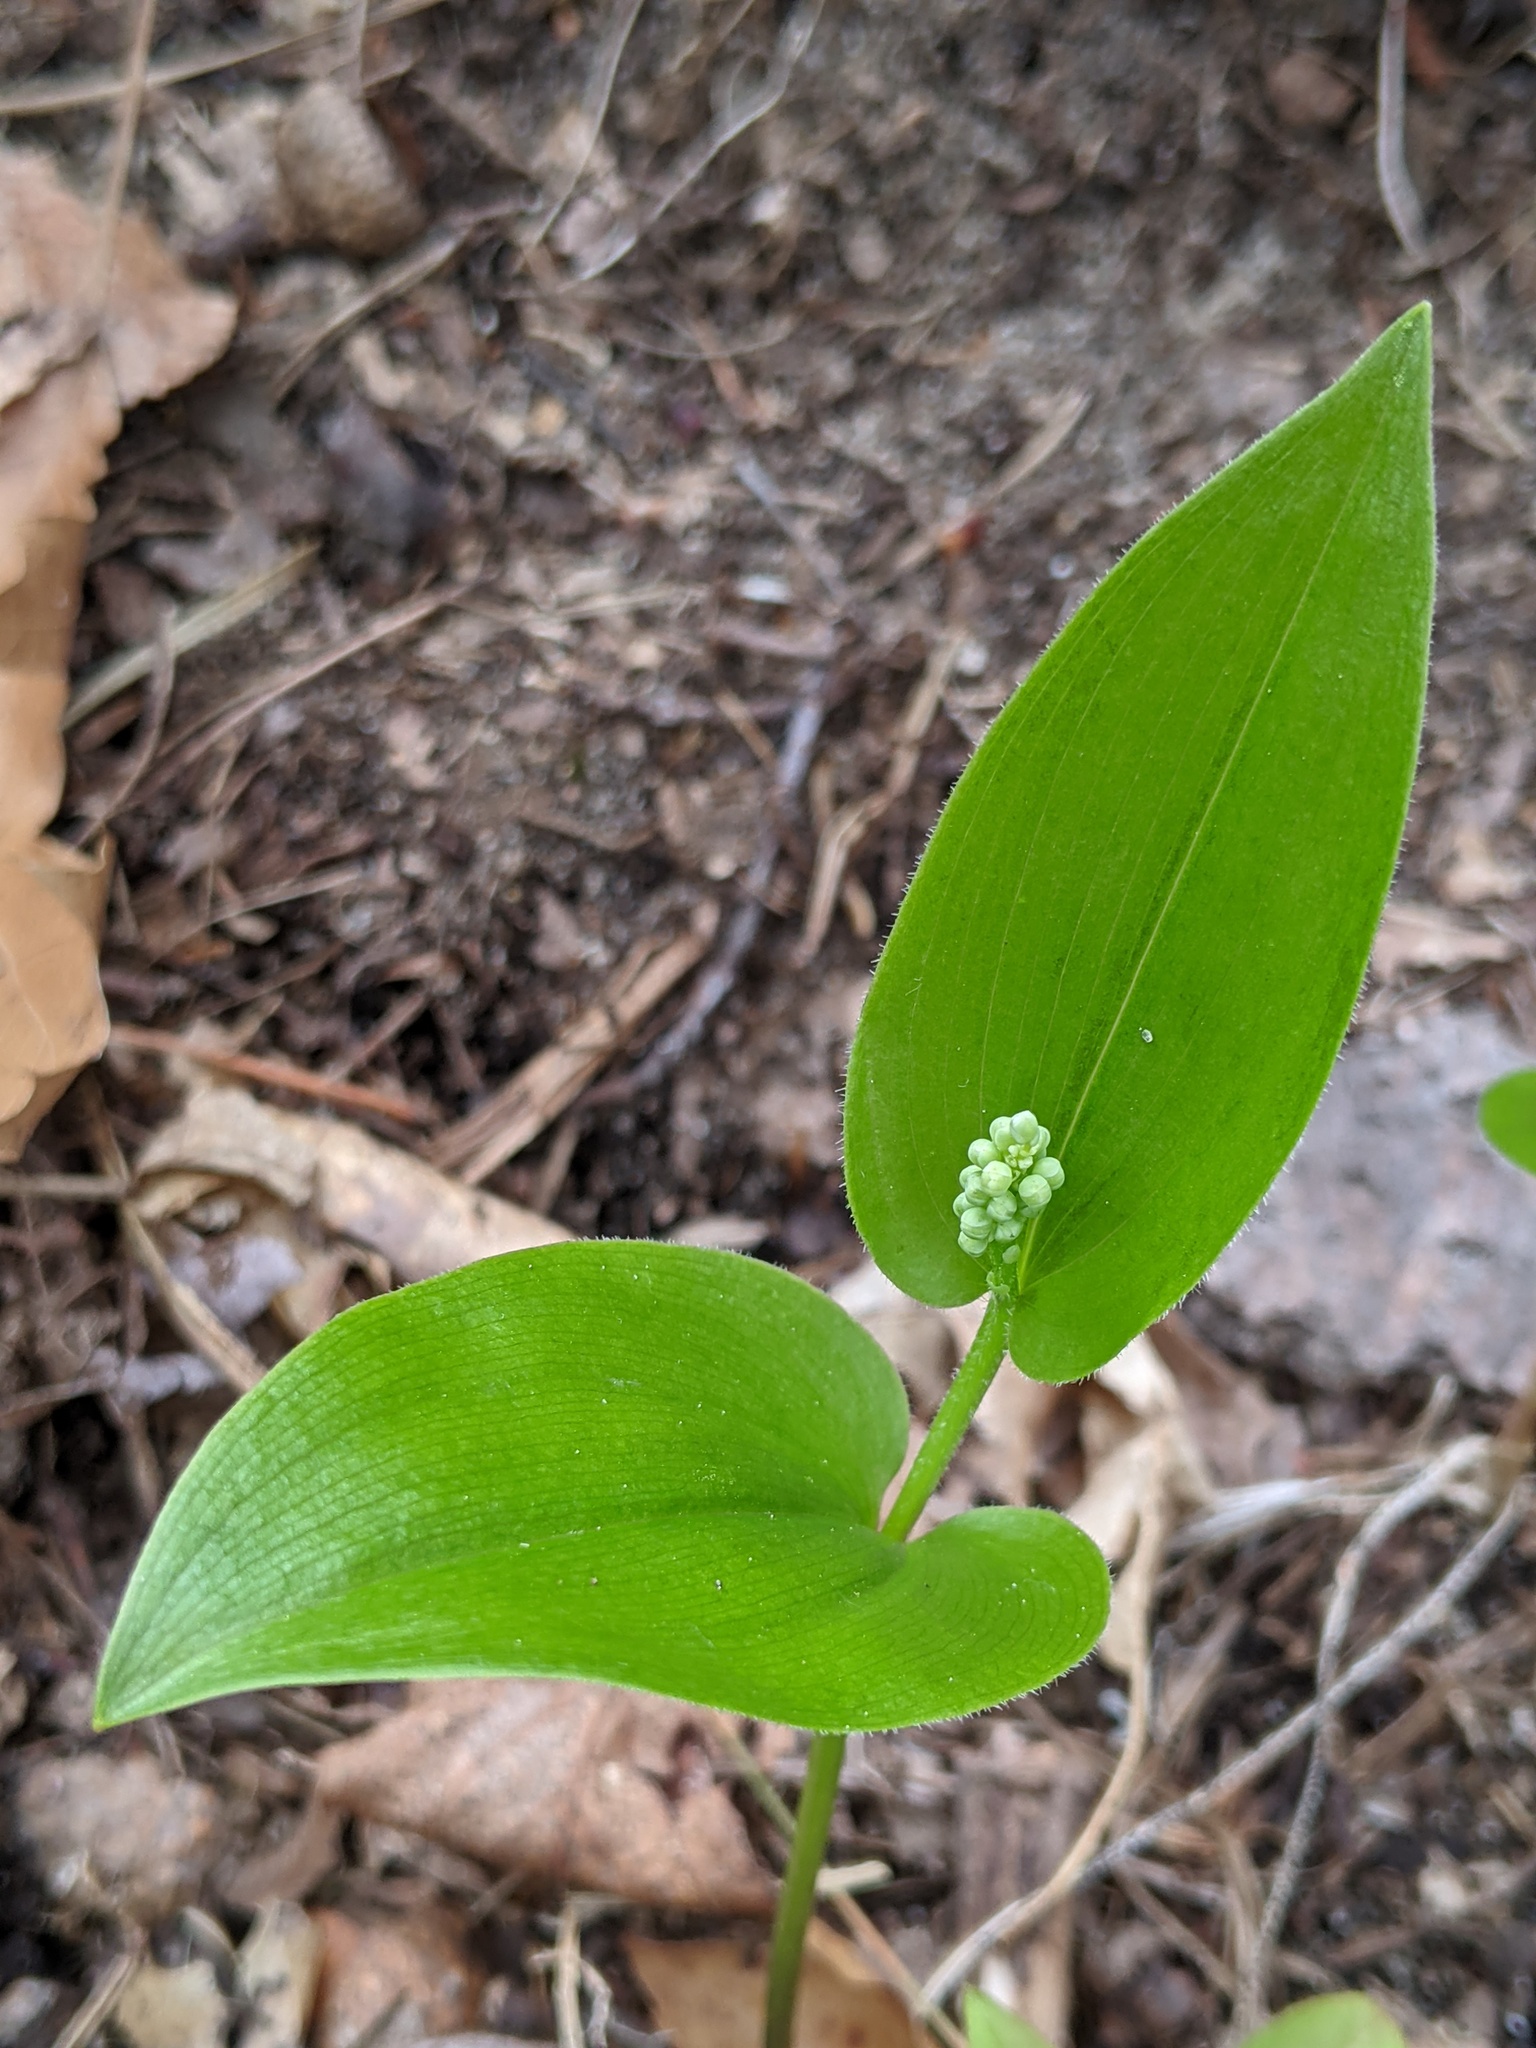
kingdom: Plantae
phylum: Tracheophyta
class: Liliopsida
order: Asparagales
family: Asparagaceae
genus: Maianthemum
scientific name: Maianthemum canadense
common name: False lily-of-the-valley
